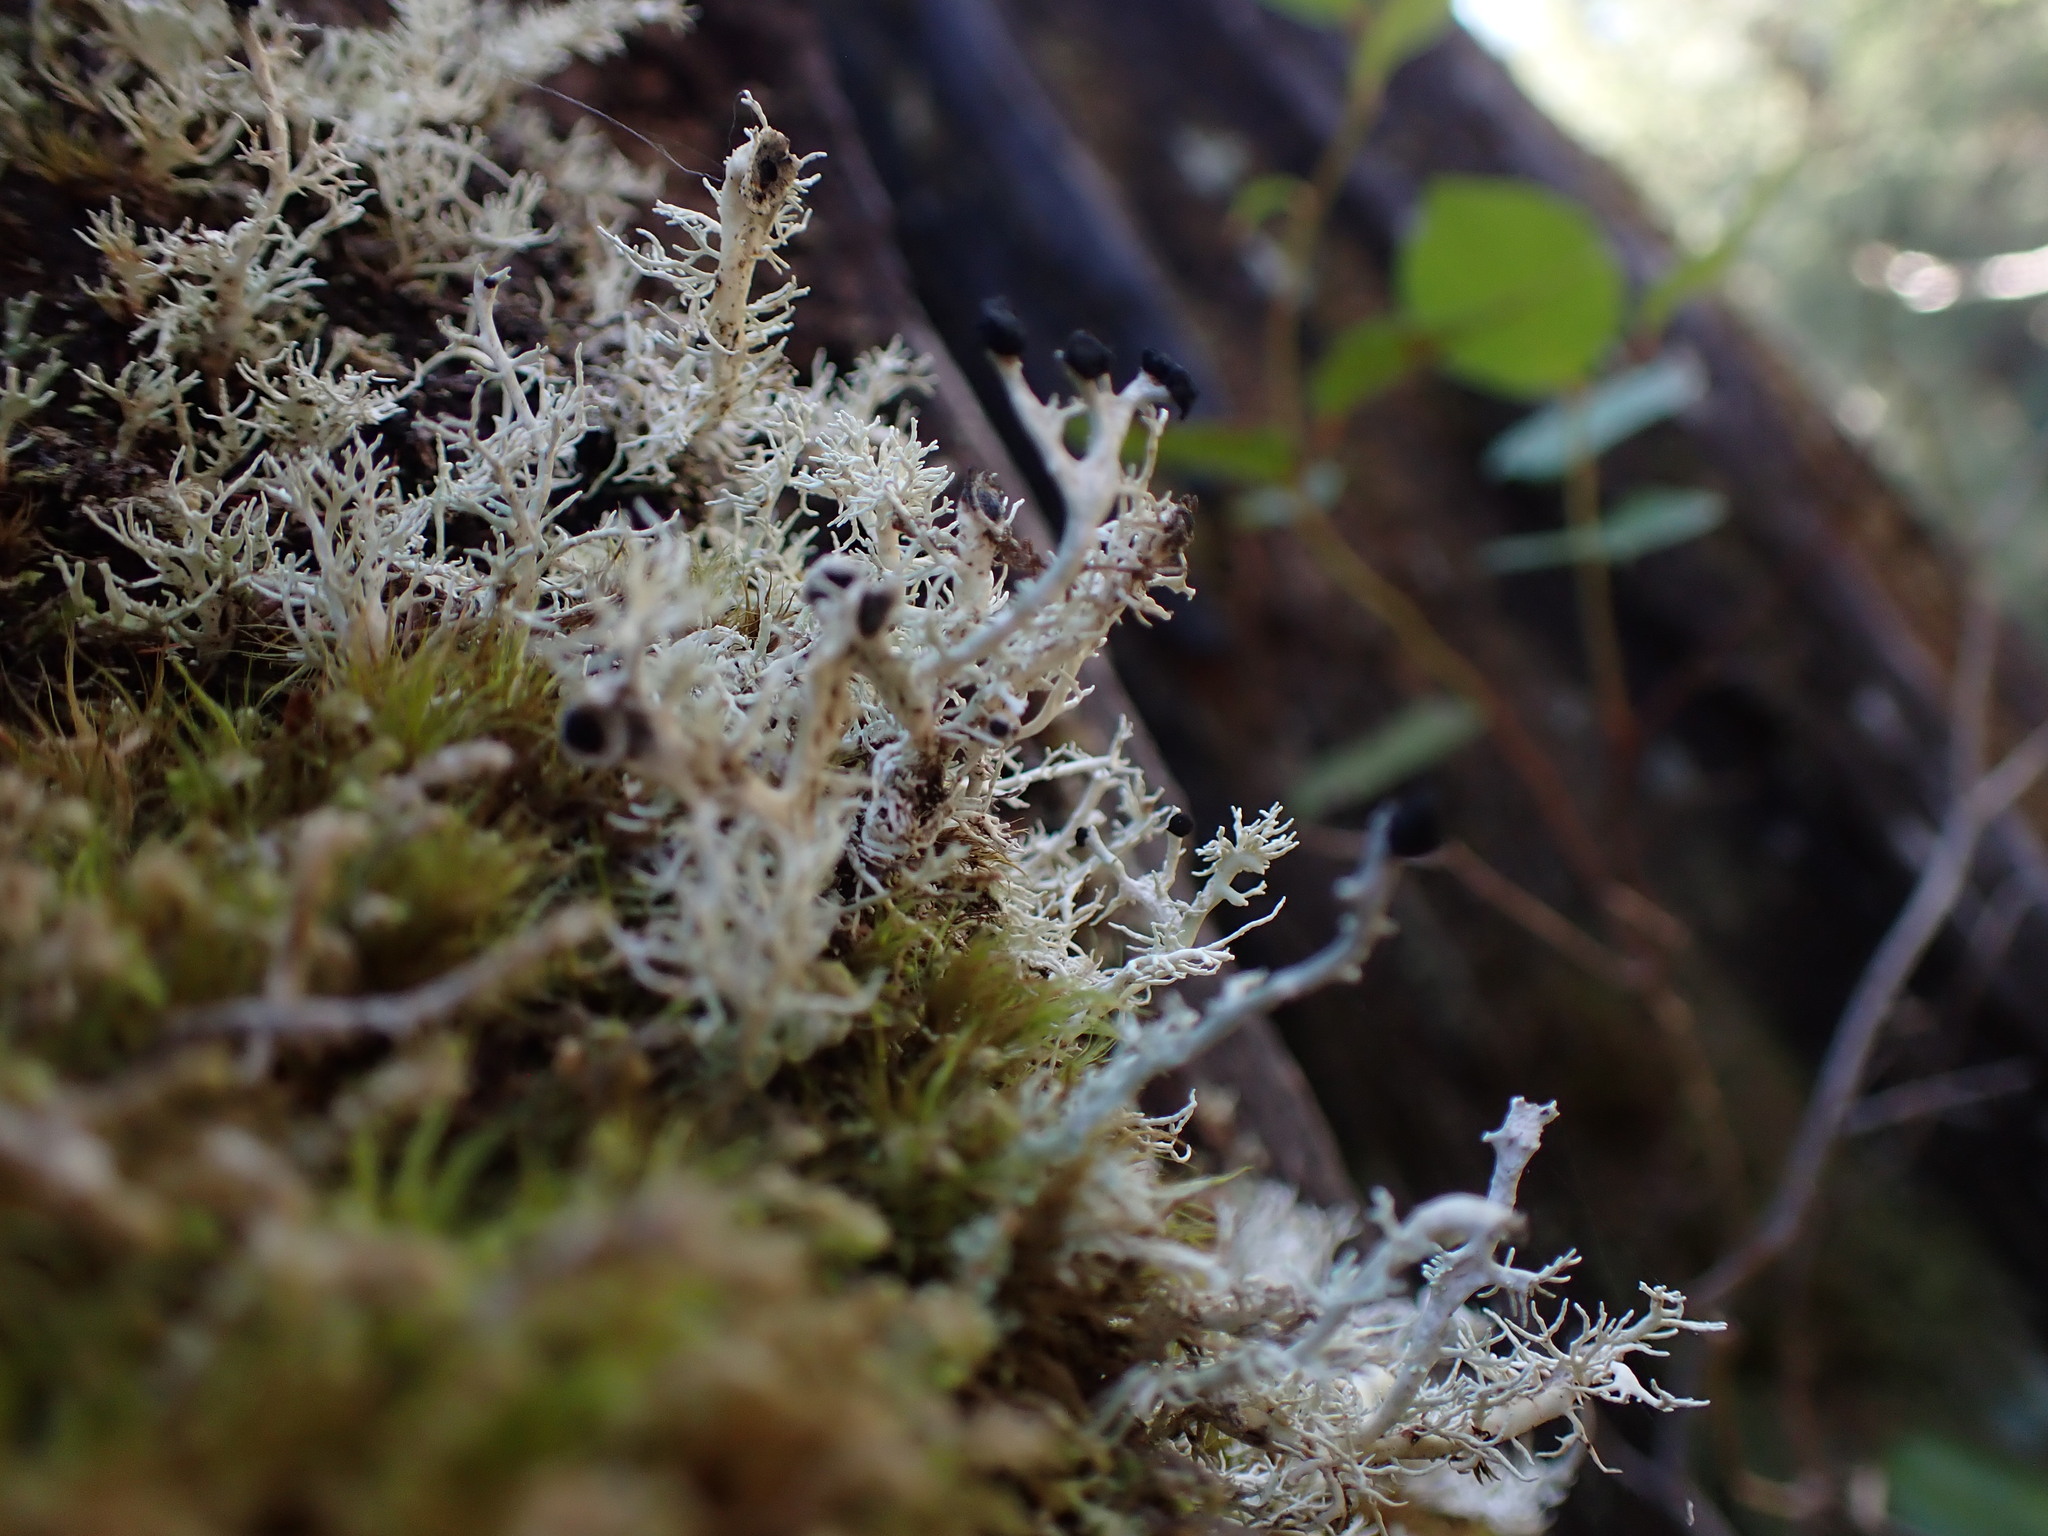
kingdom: Fungi
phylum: Ascomycota
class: Lecanoromycetes
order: Lecanorales
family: Sphaerophoraceae
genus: Bunodophoron
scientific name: Bunodophoron melanocarpum
